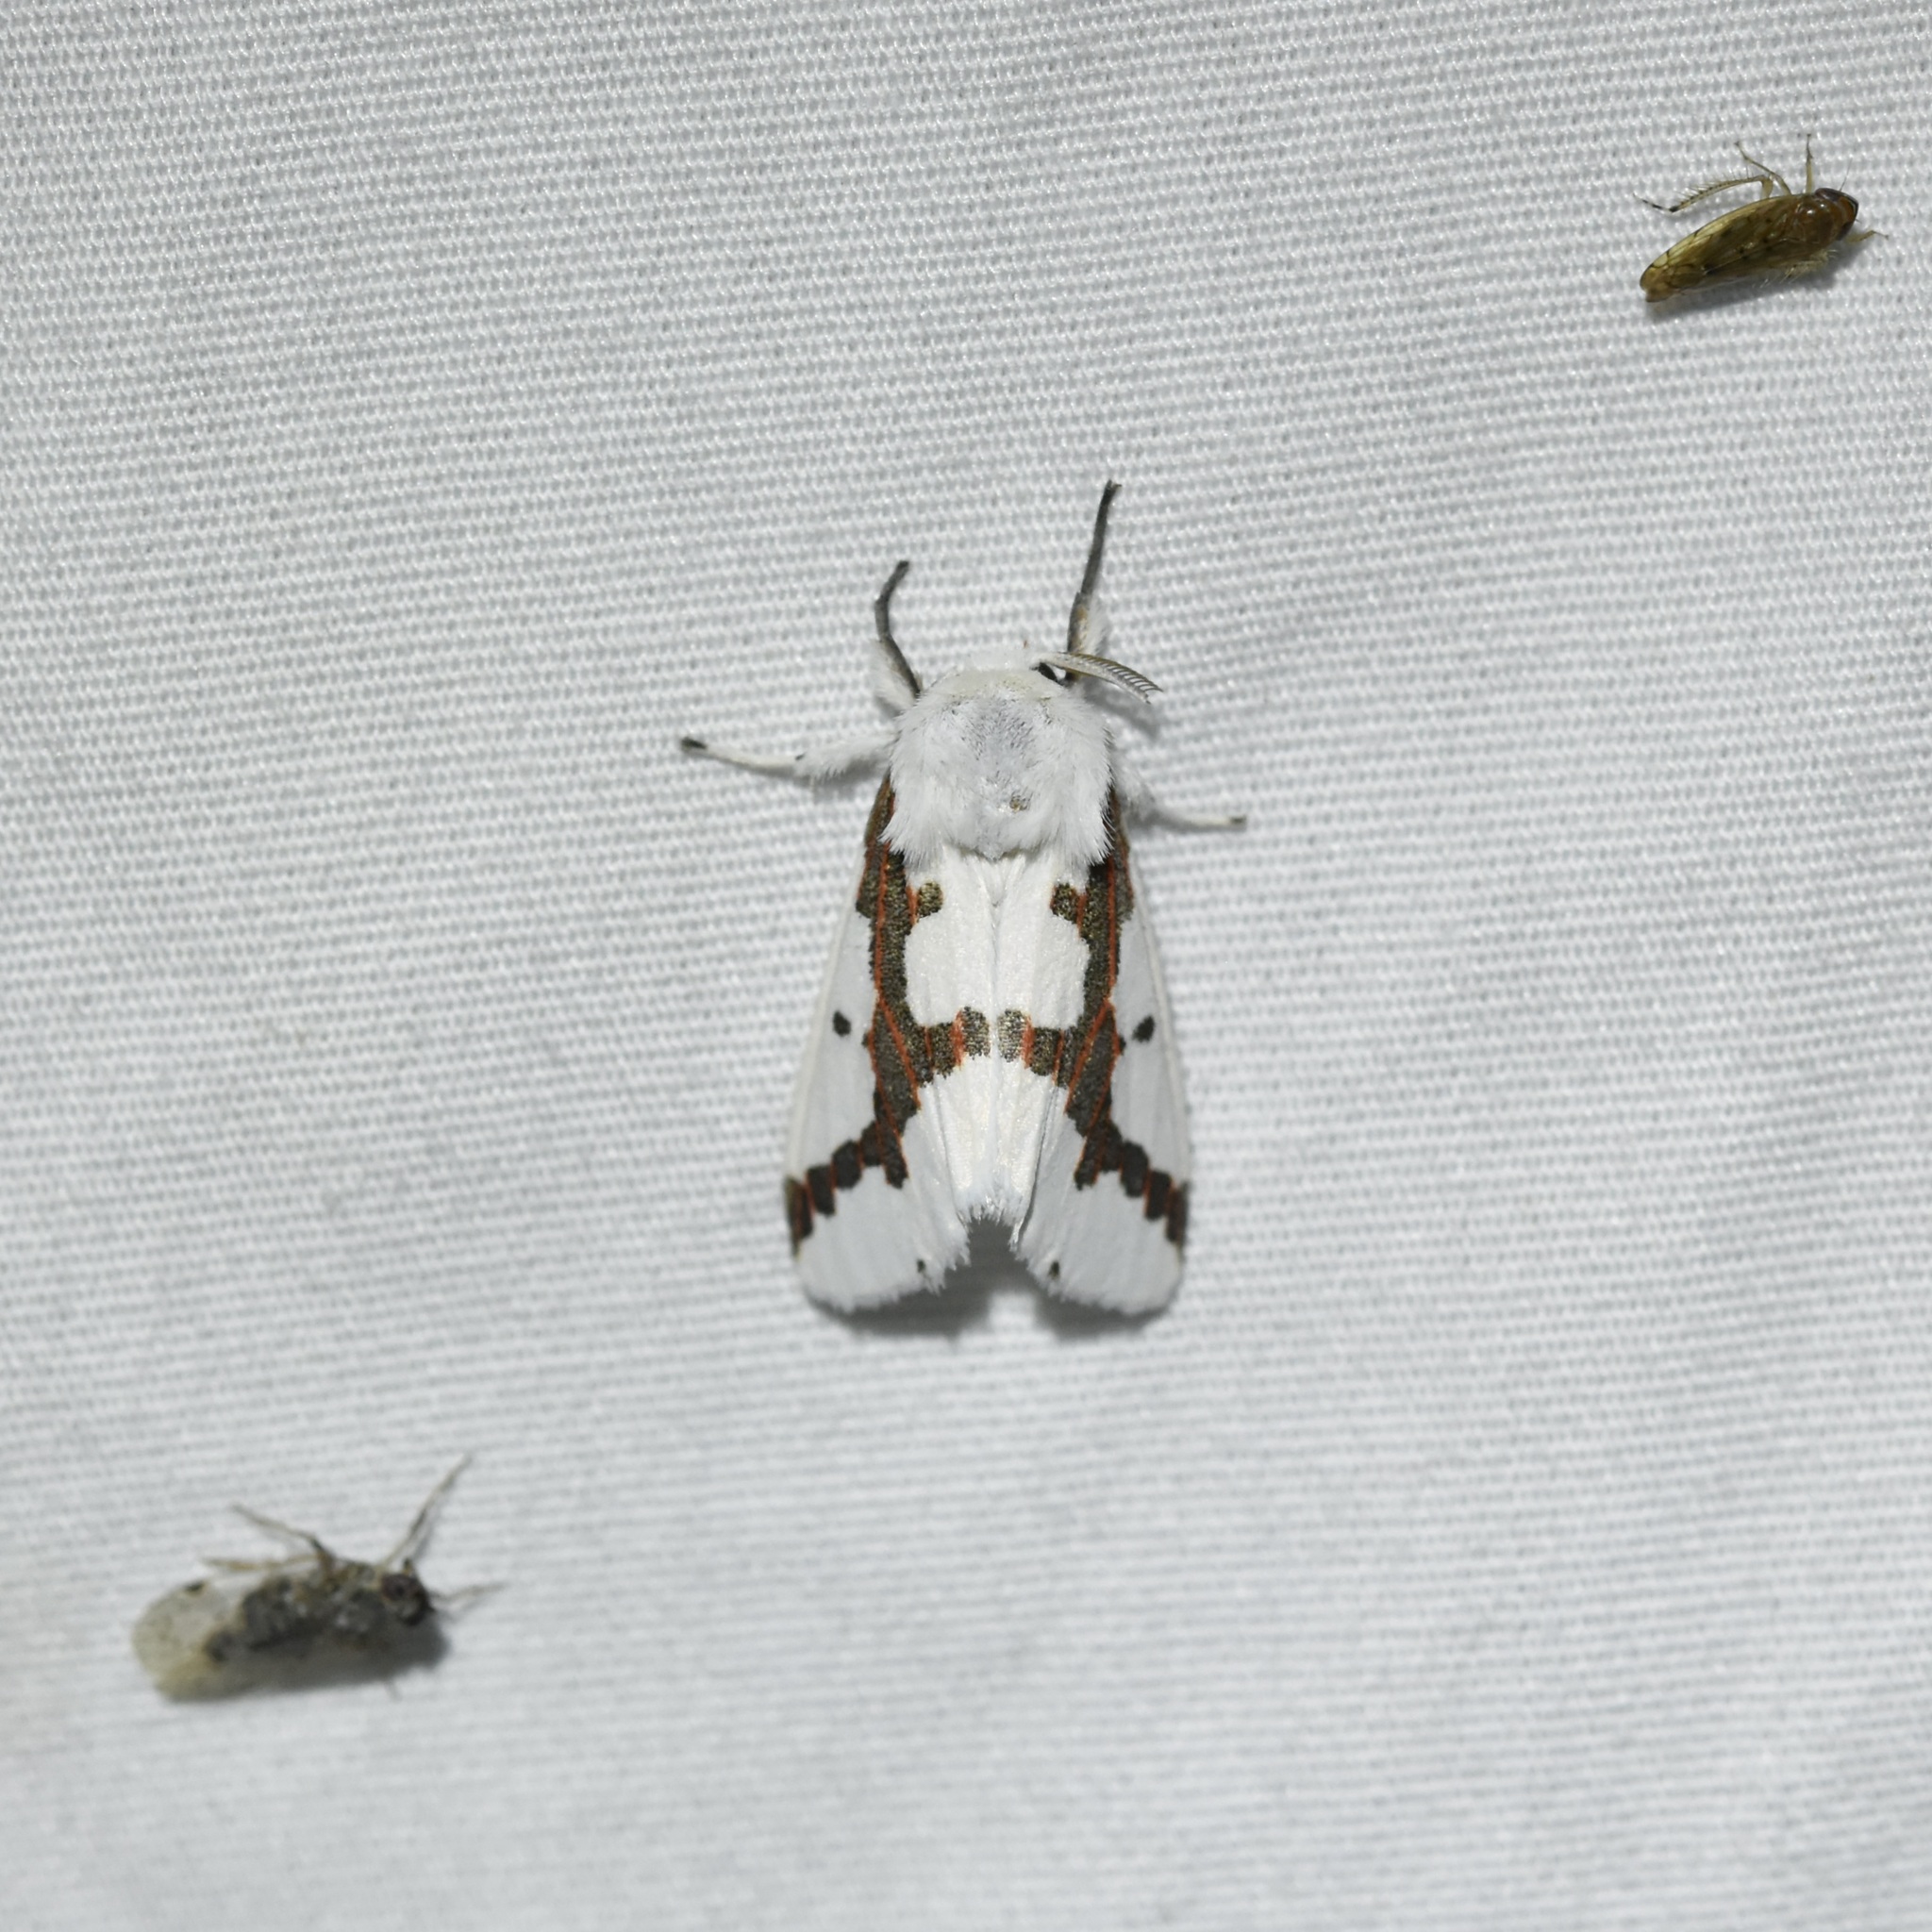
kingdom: Animalia
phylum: Arthropoda
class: Insecta
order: Lepidoptera
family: Erebidae
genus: Euerythra
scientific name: Euerythra phasma
